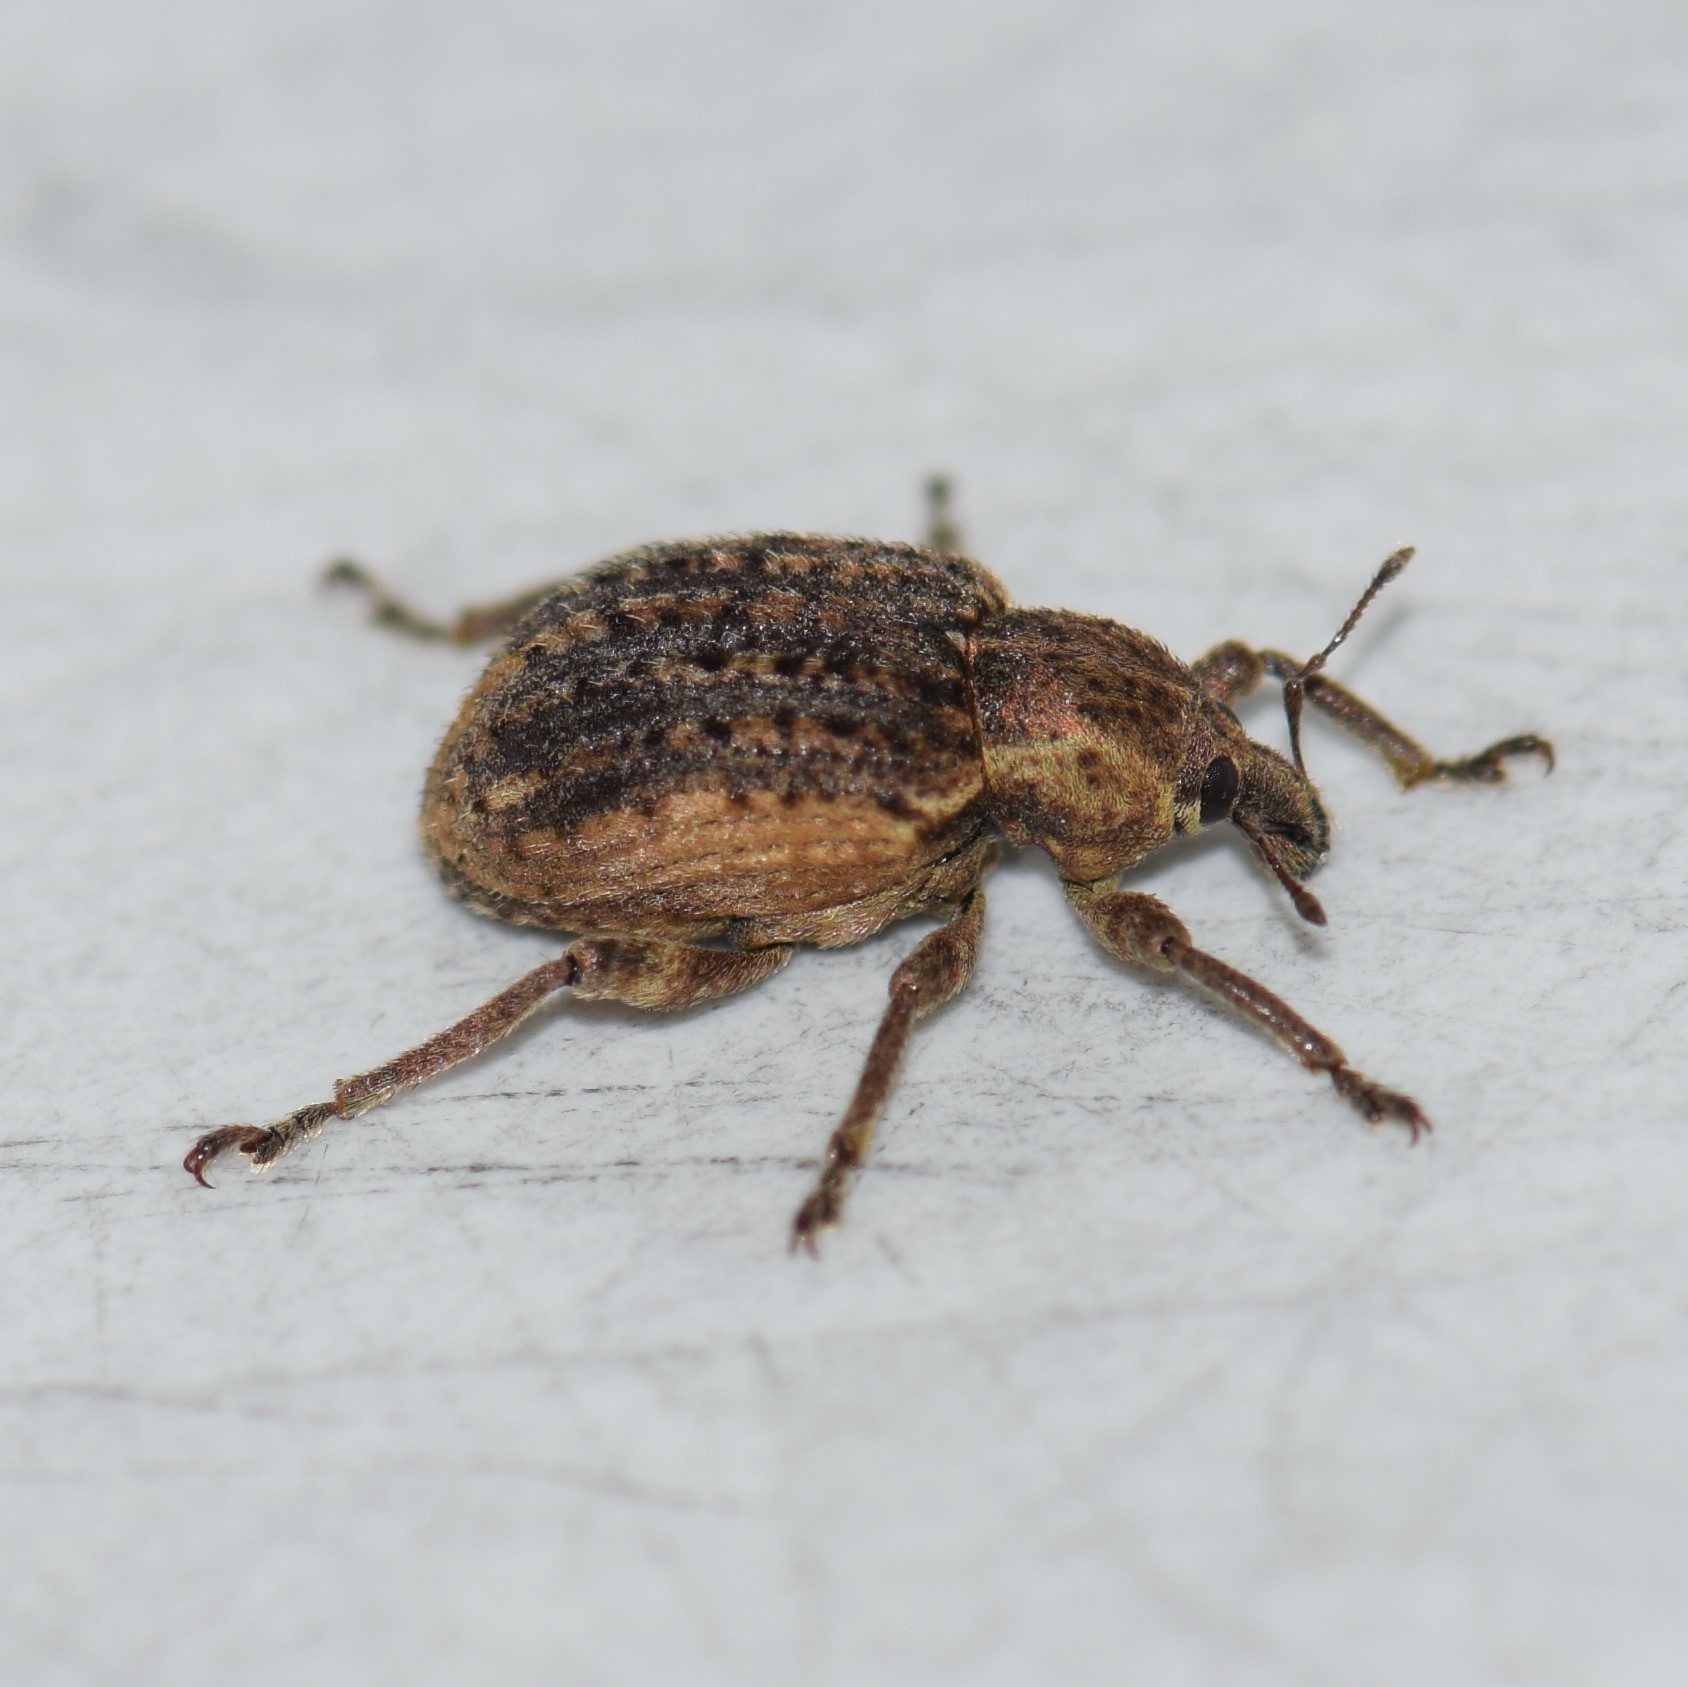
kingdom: Animalia
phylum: Arthropoda
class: Insecta
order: Coleoptera
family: Curculionidae
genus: Brachypera
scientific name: Brachypera zoilus
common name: Clover leaf weevil
